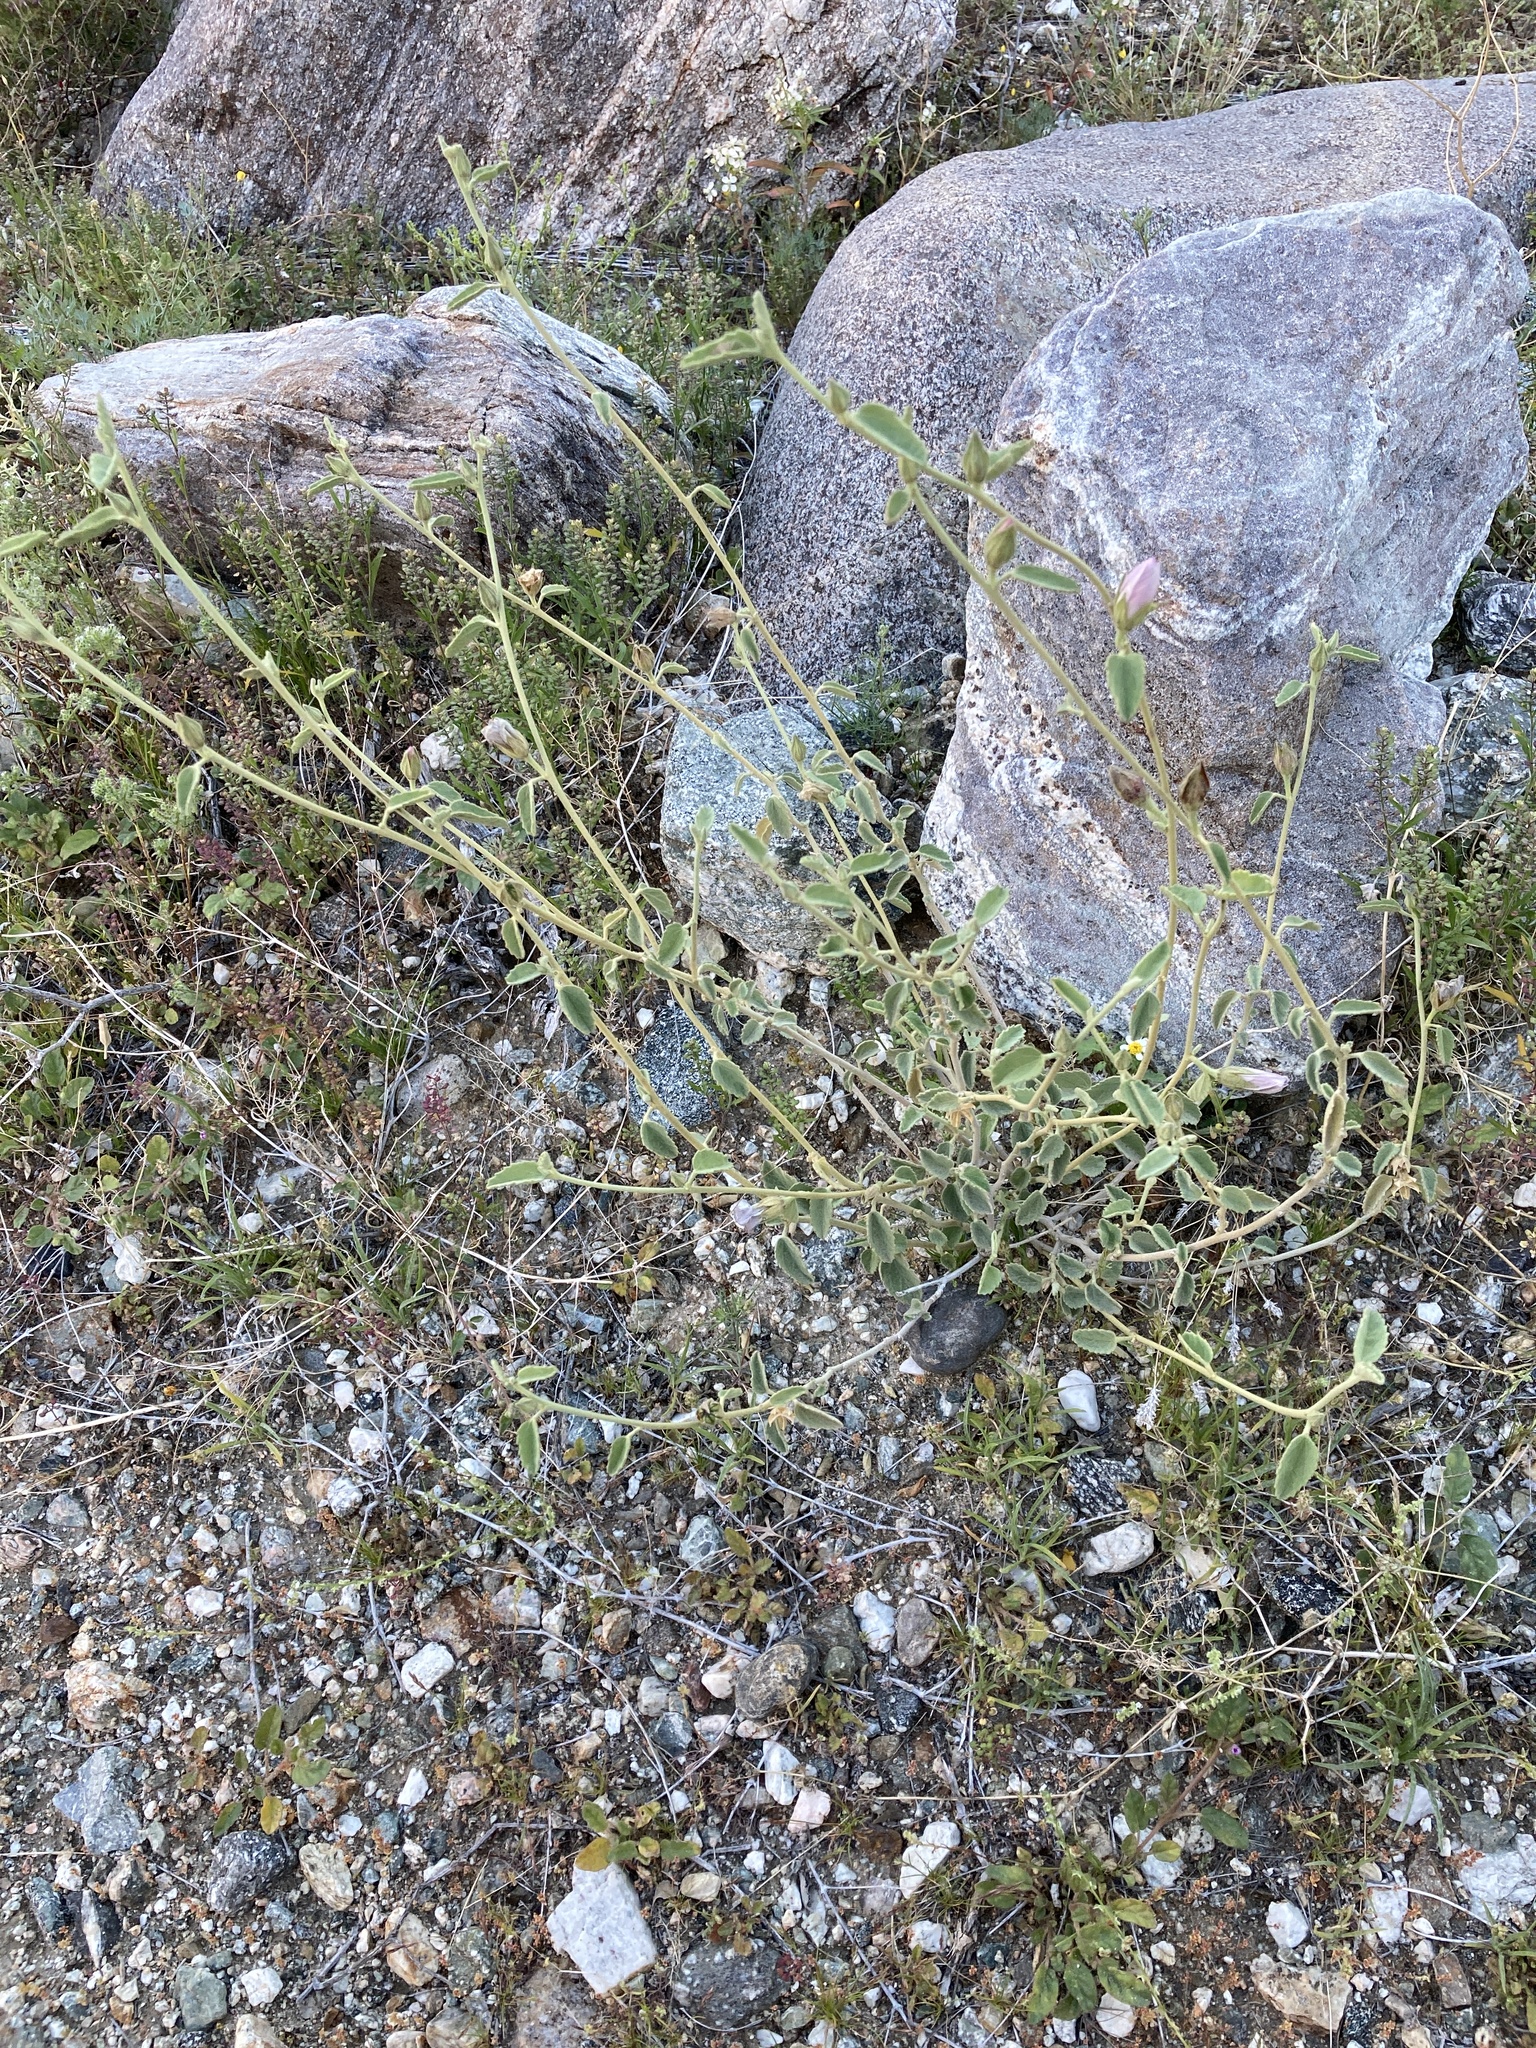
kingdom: Plantae
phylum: Tracheophyta
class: Magnoliopsida
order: Malvales
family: Malvaceae
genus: Hibiscus
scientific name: Hibiscus denudatus
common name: Paleface
